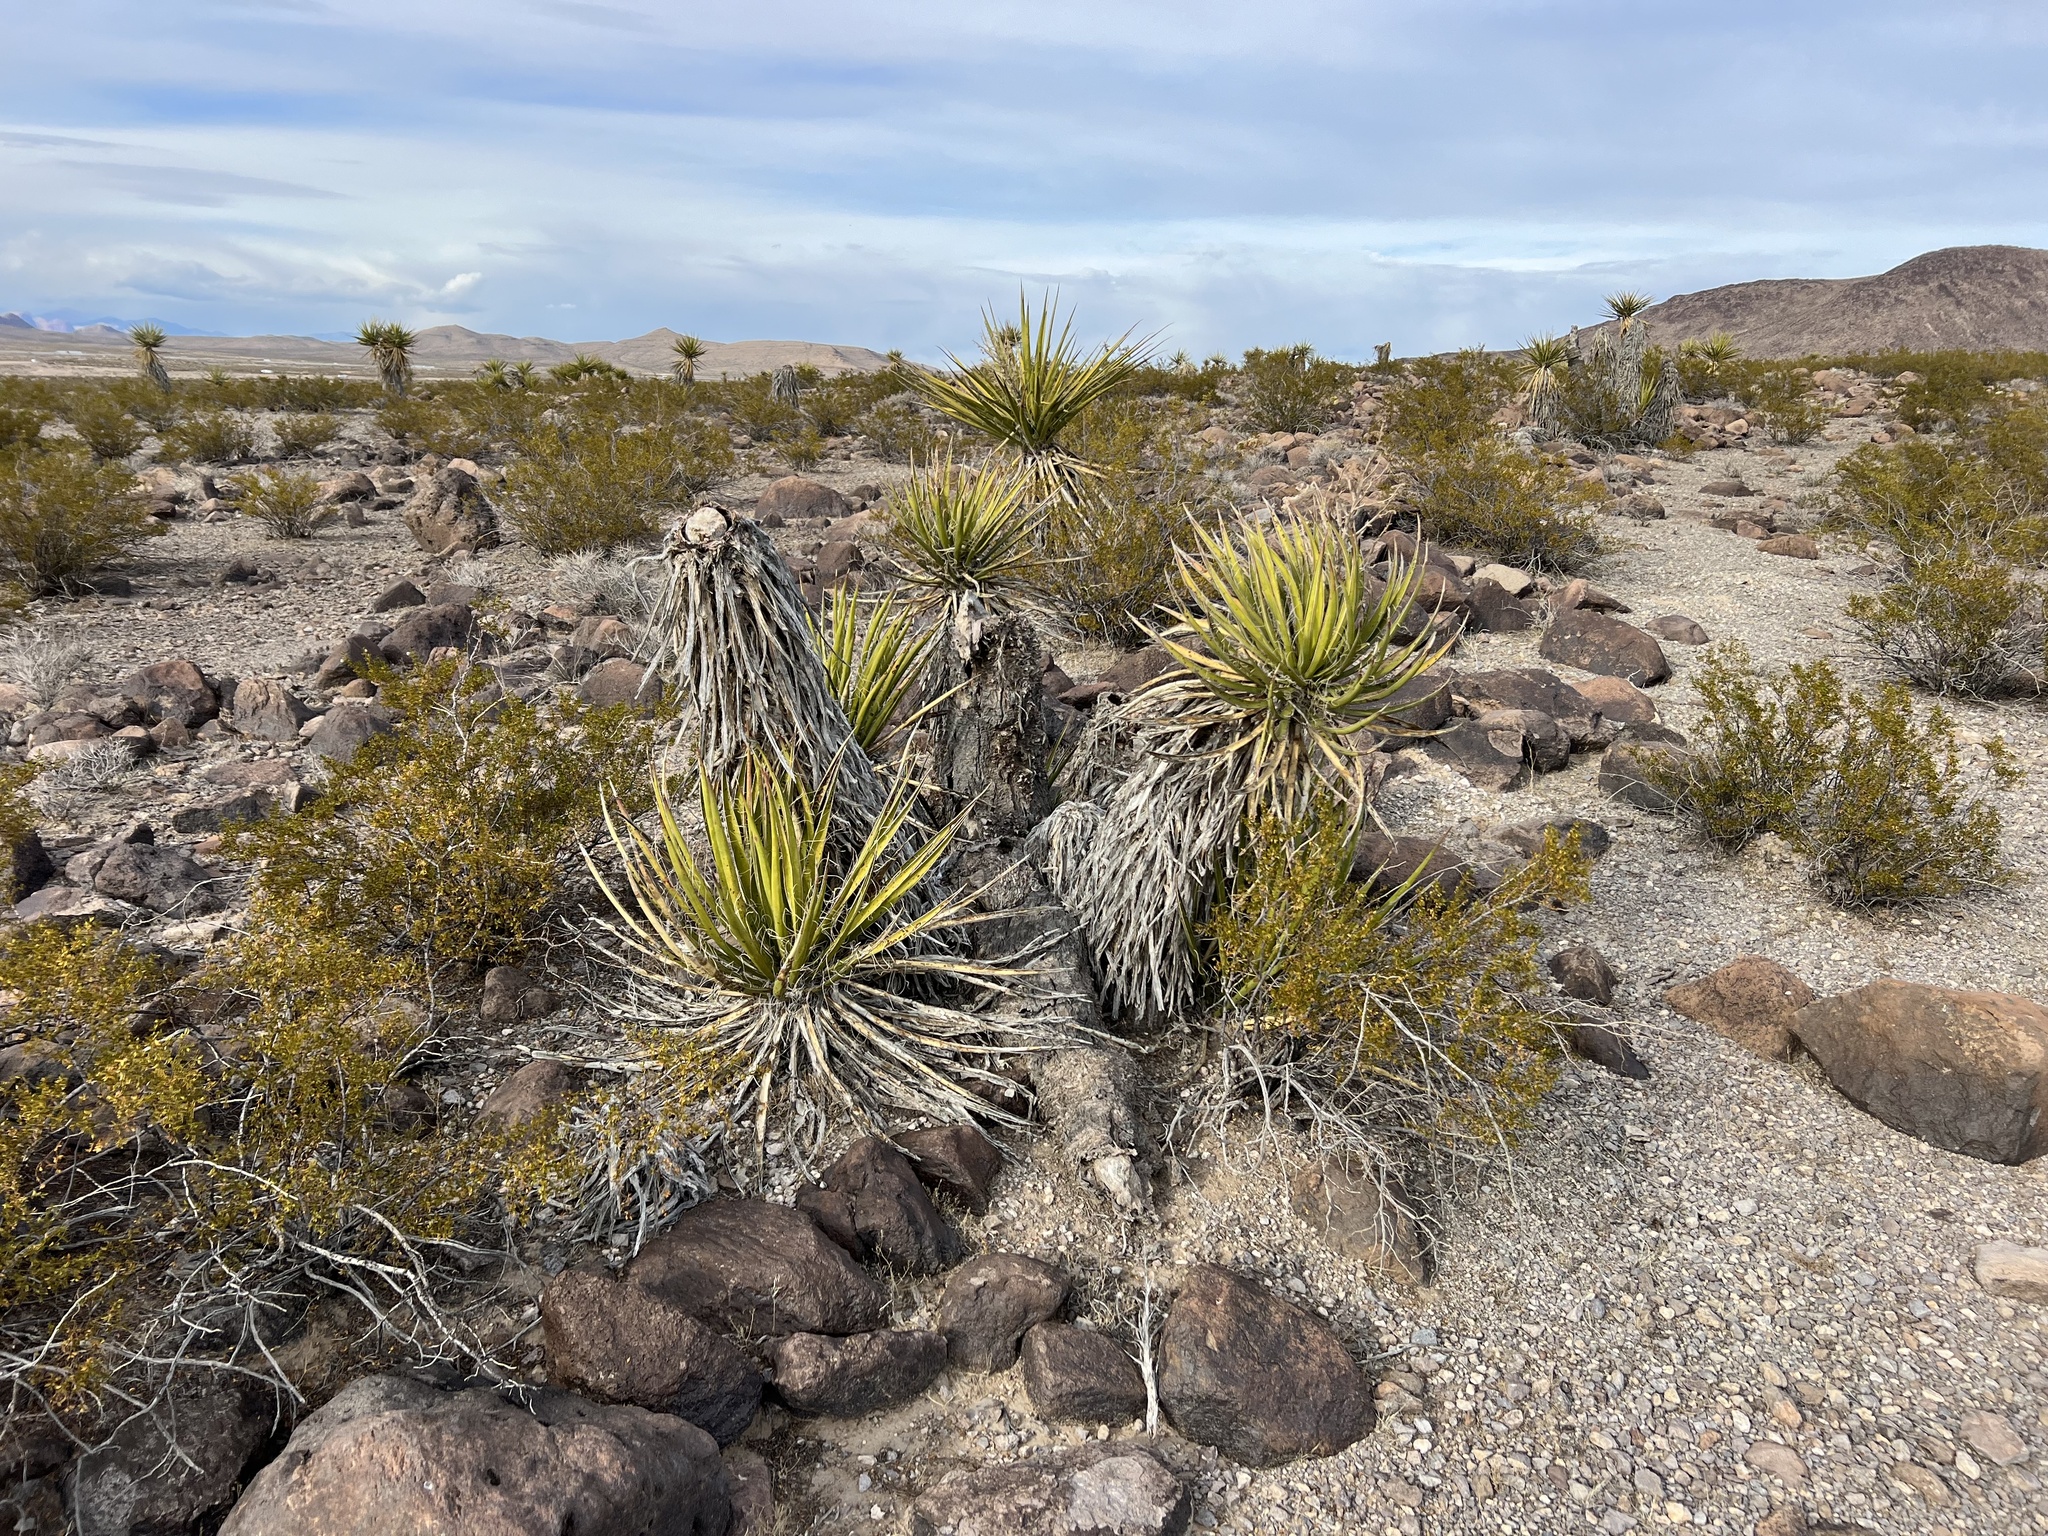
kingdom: Plantae
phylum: Tracheophyta
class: Liliopsida
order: Asparagales
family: Asparagaceae
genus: Yucca
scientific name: Yucca schidigera
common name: Mojave yucca
